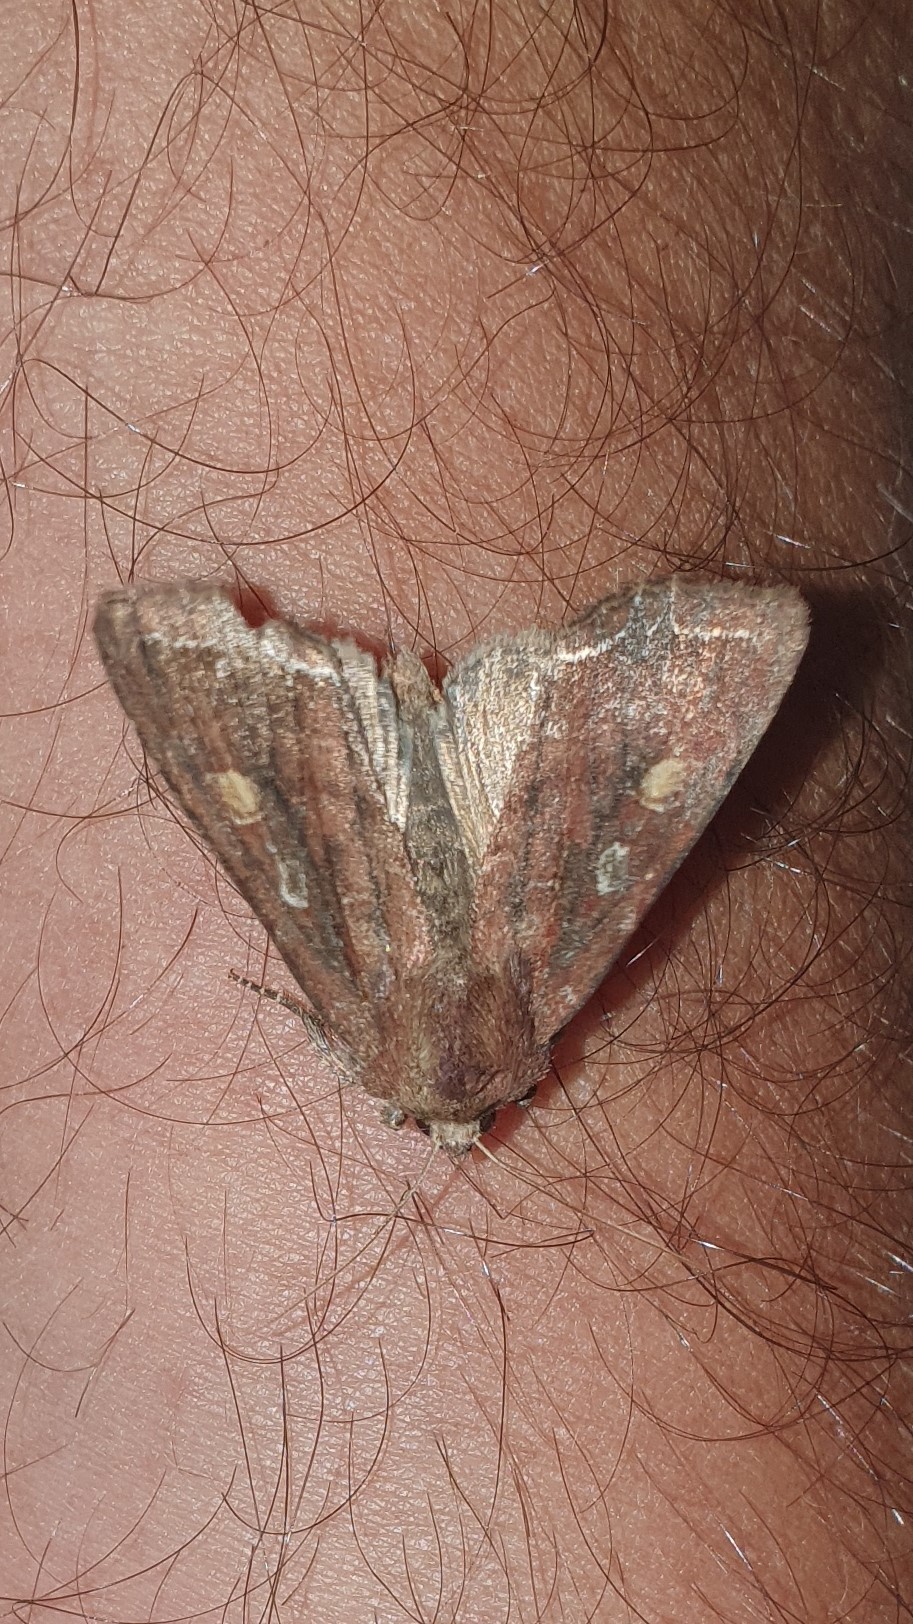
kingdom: Animalia
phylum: Arthropoda
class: Insecta
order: Lepidoptera
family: Noctuidae
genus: Lacanobia
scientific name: Lacanobia oleracea
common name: Bright-line brown-eye
